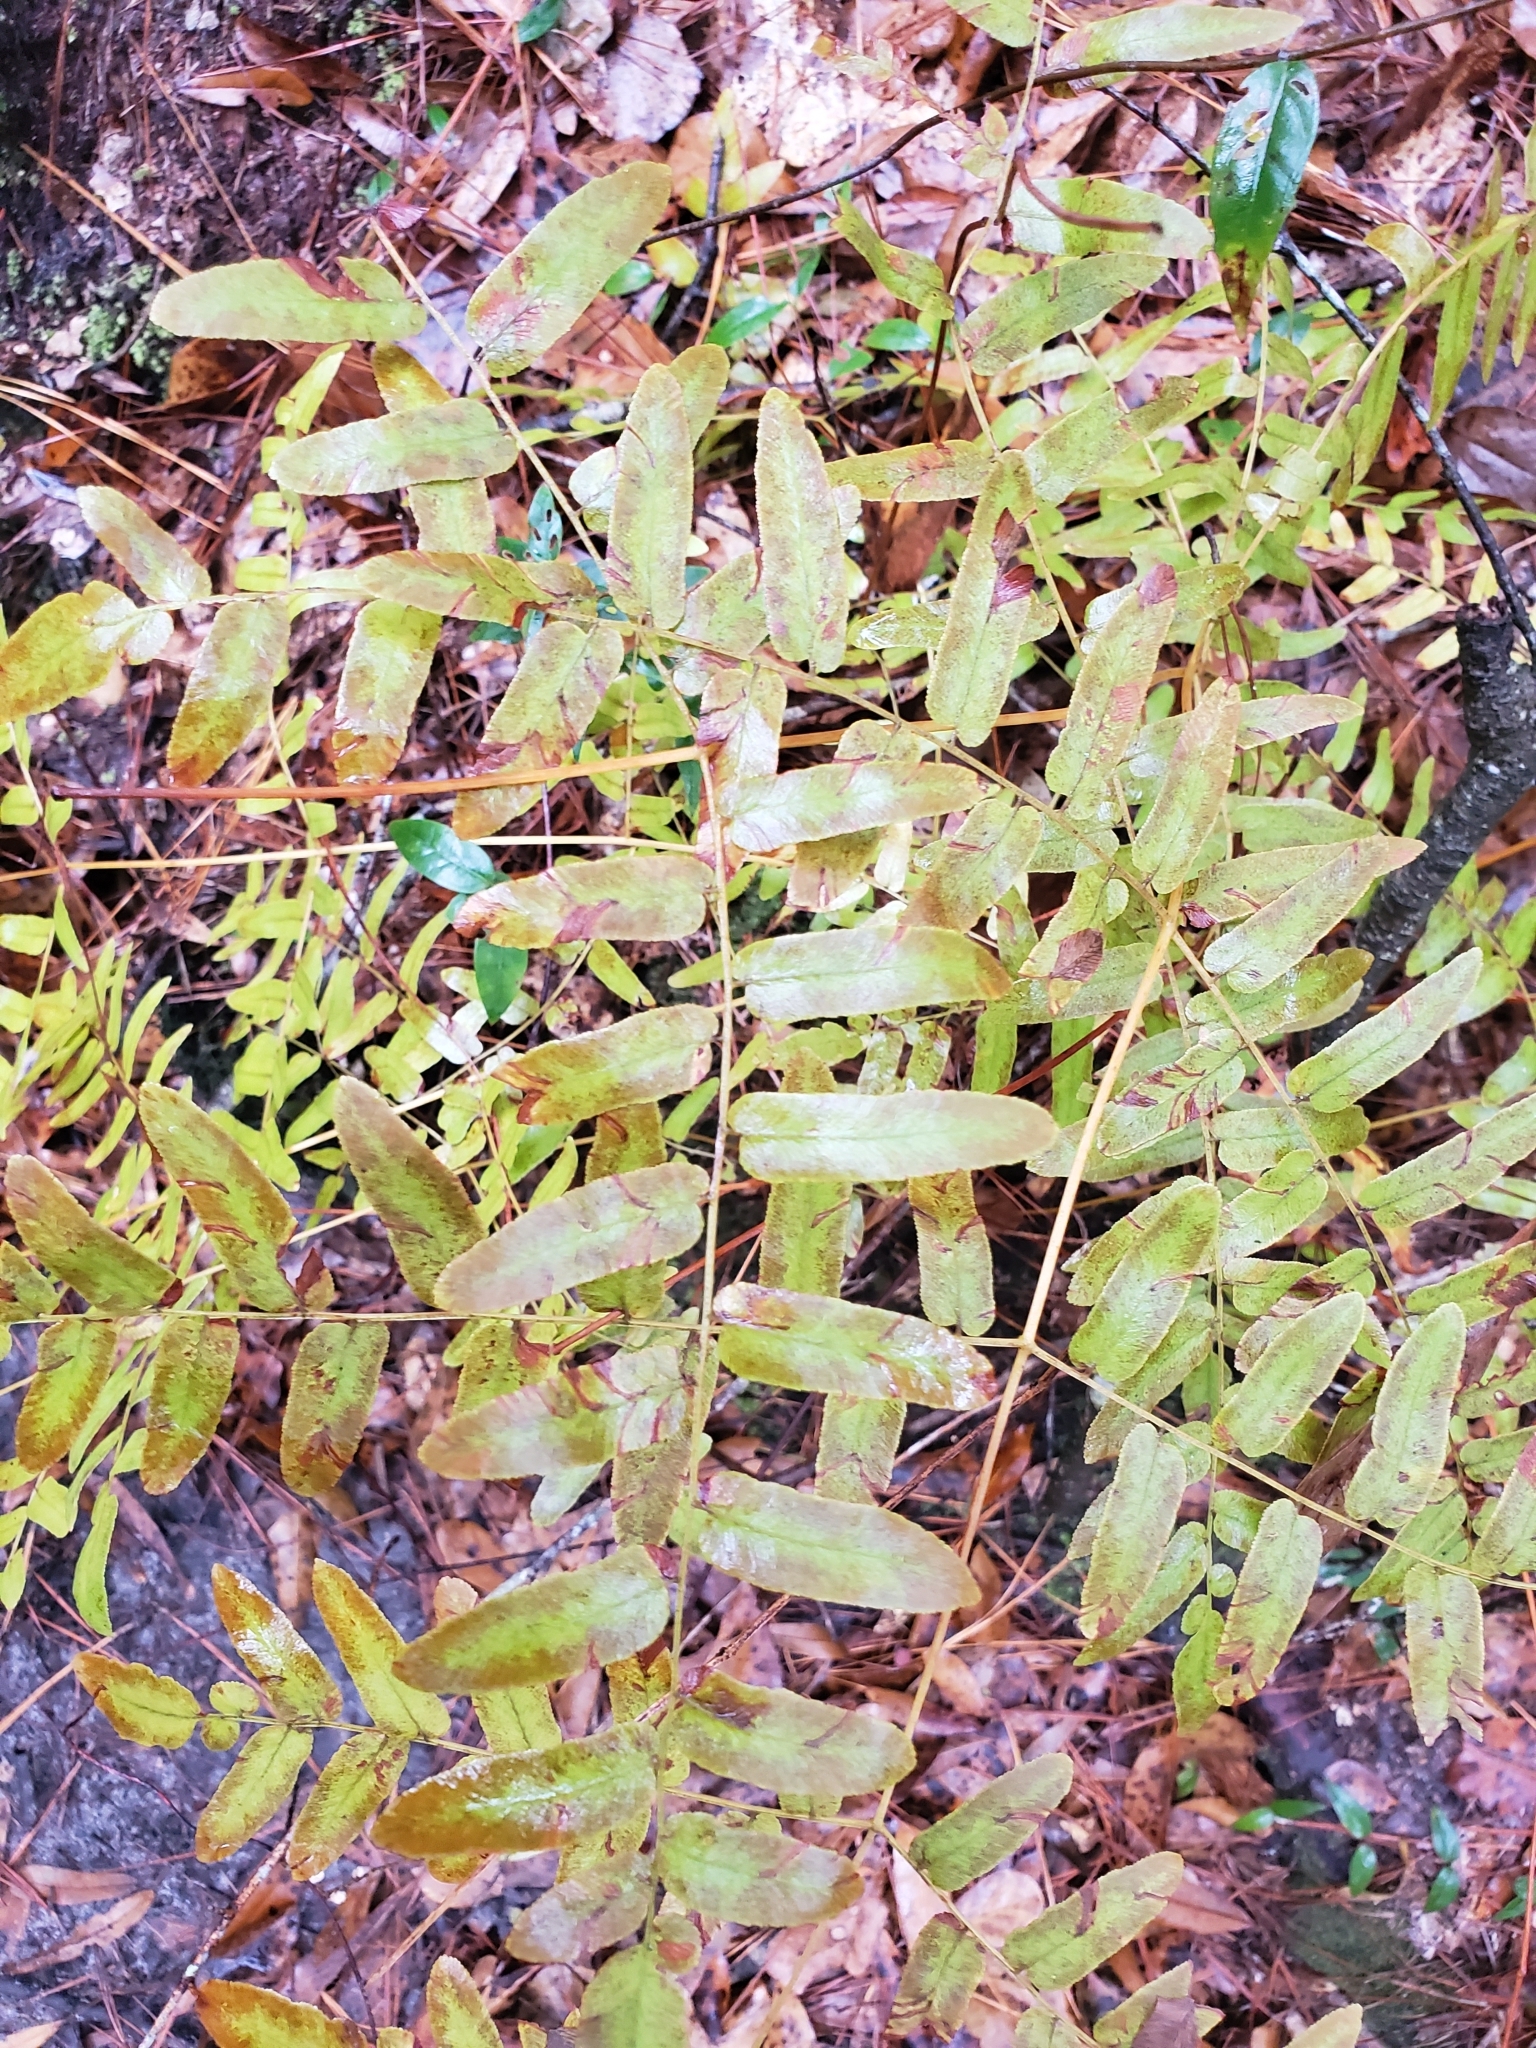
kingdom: Plantae
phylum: Tracheophyta
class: Polypodiopsida
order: Osmundales
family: Osmundaceae
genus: Osmunda
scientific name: Osmunda spectabilis
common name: American royal fern
